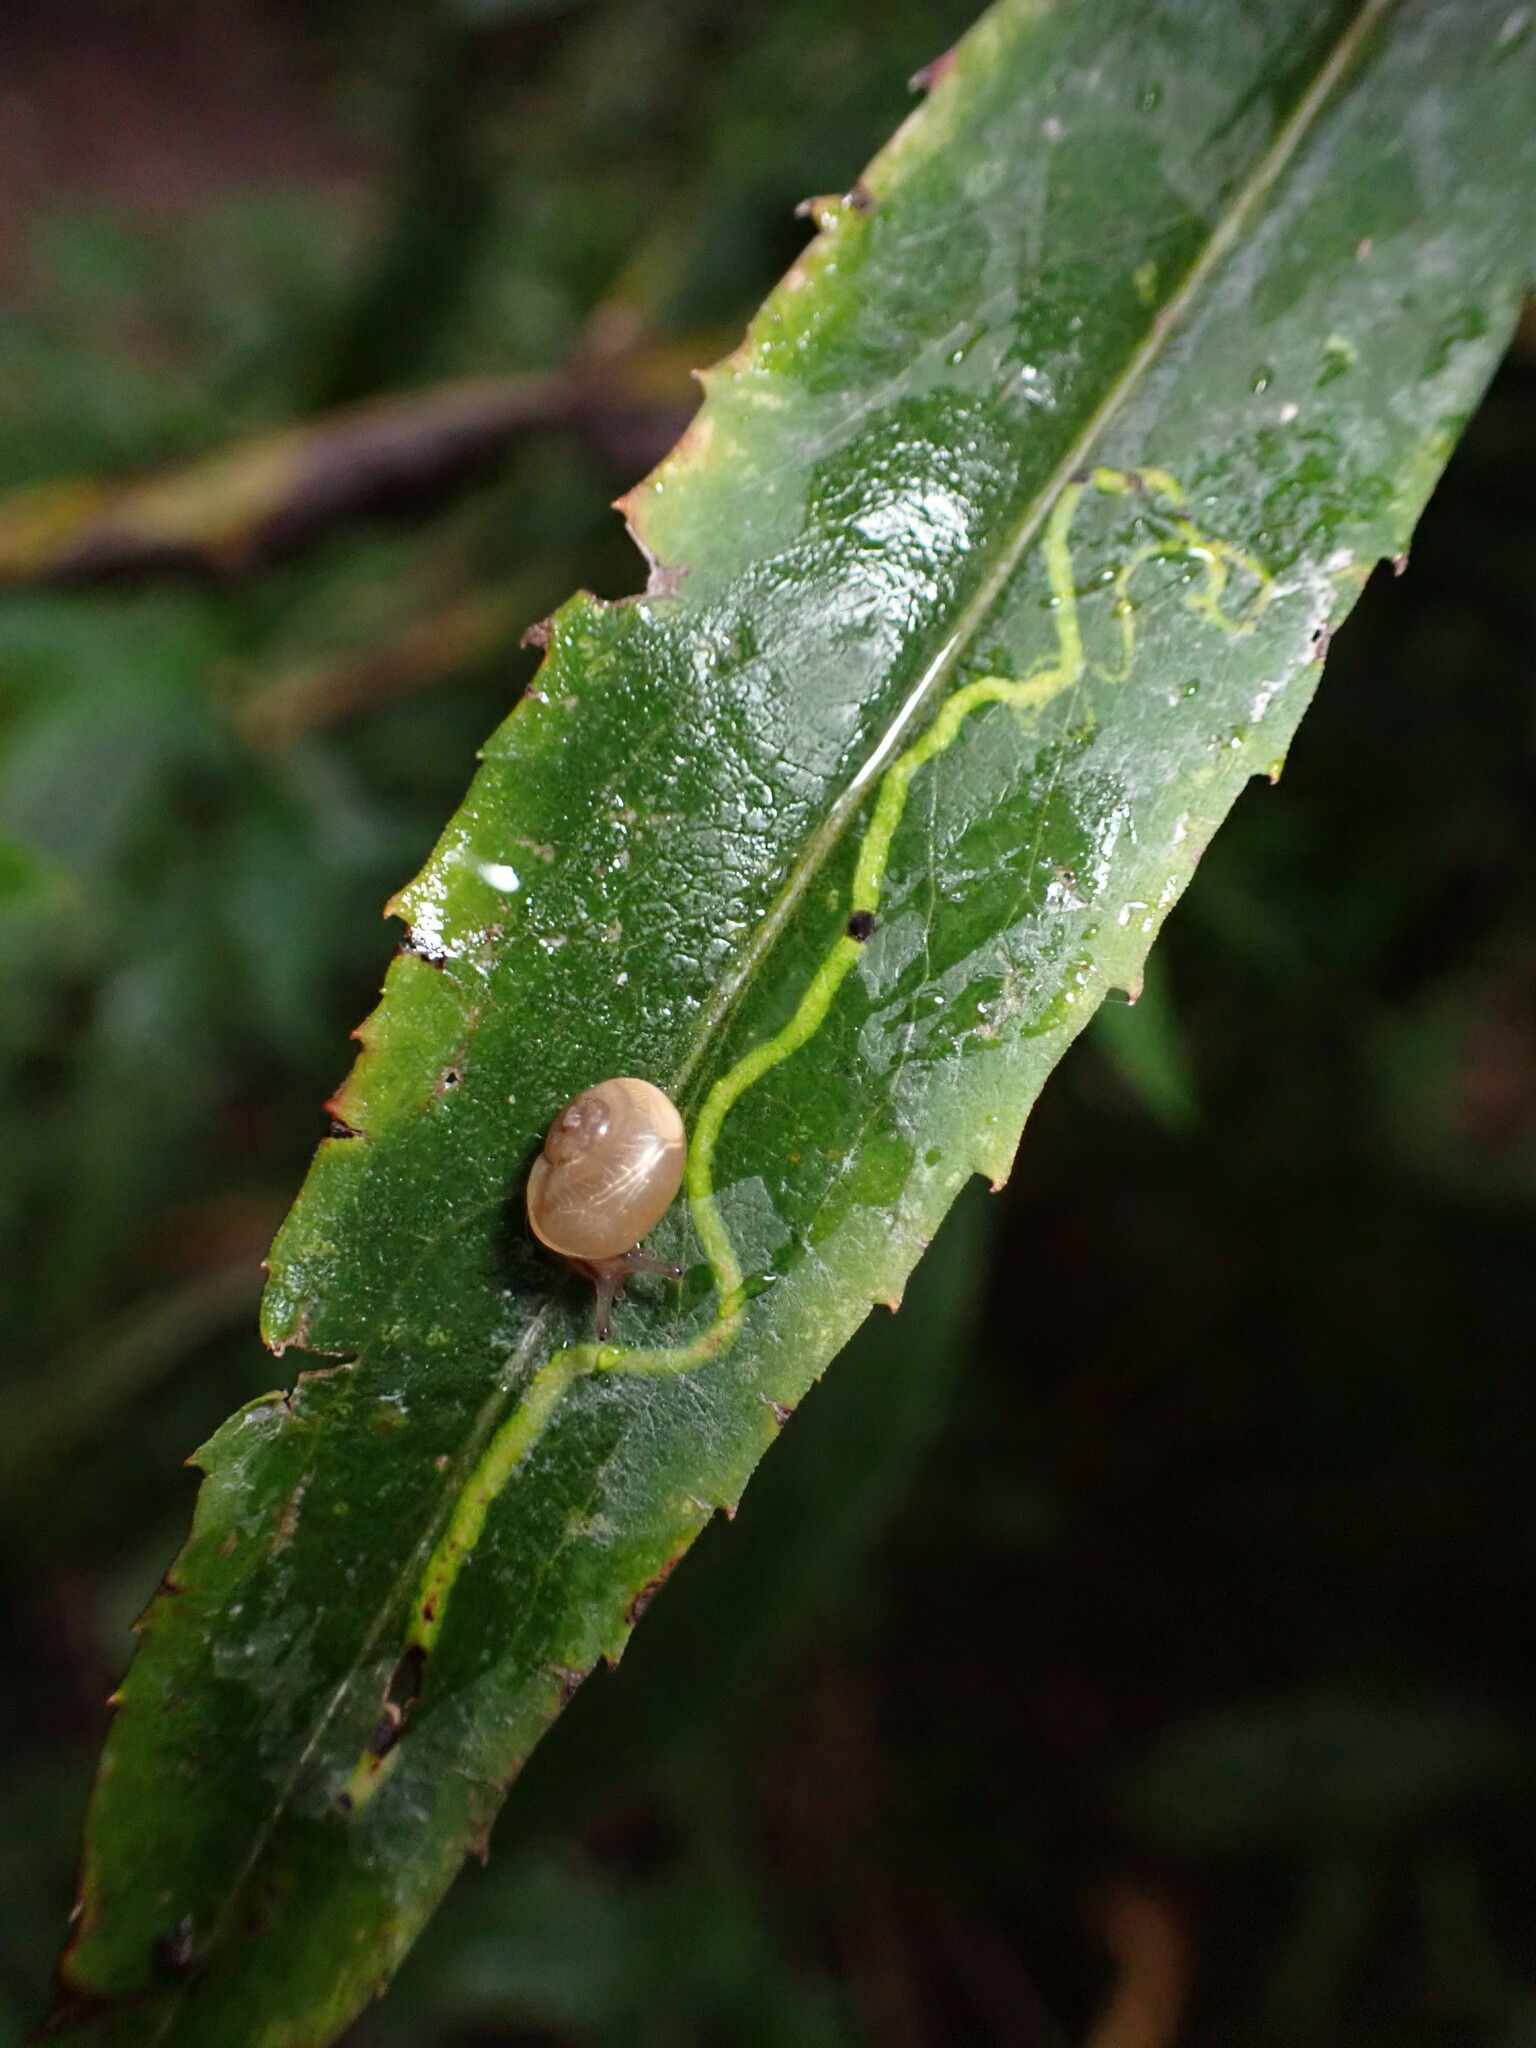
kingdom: Animalia
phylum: Arthropoda
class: Insecta
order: Diptera
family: Agromyzidae
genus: Ophiomyia
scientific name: Ophiomyia parda
